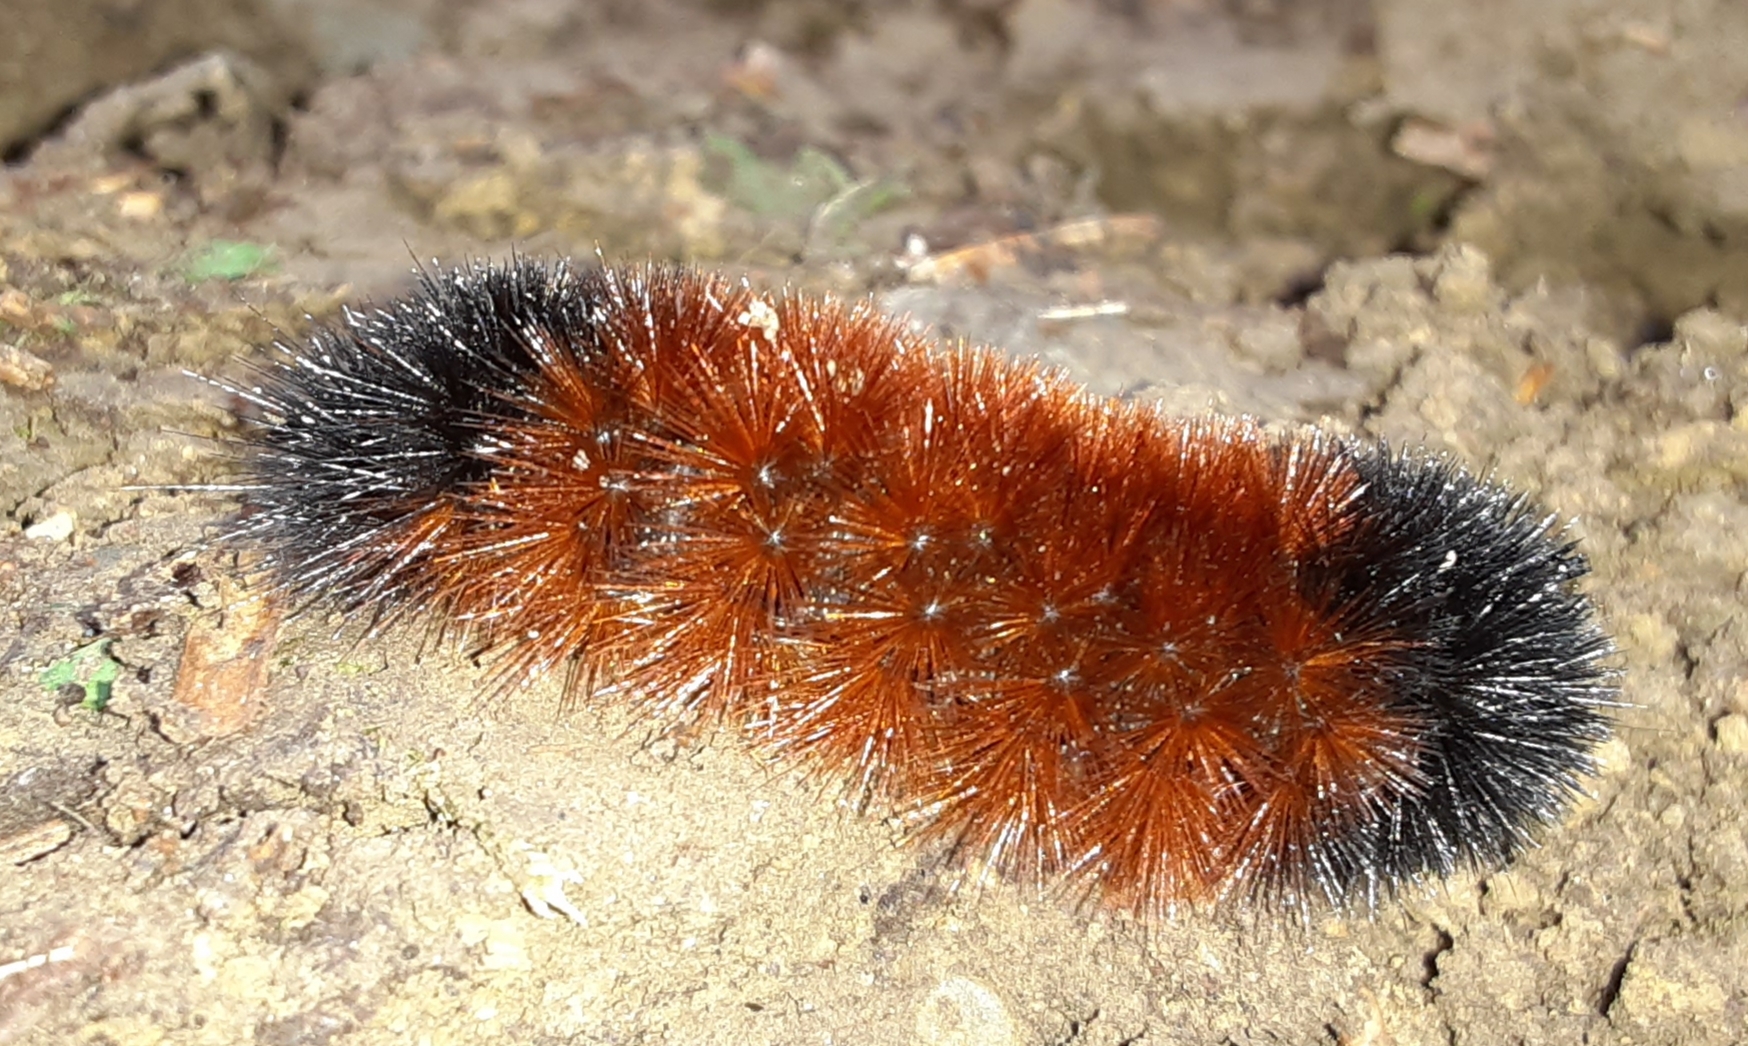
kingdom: Animalia
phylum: Arthropoda
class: Insecta
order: Lepidoptera
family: Erebidae
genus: Pyrrharctia
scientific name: Pyrrharctia isabella
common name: Isabella tiger moth
